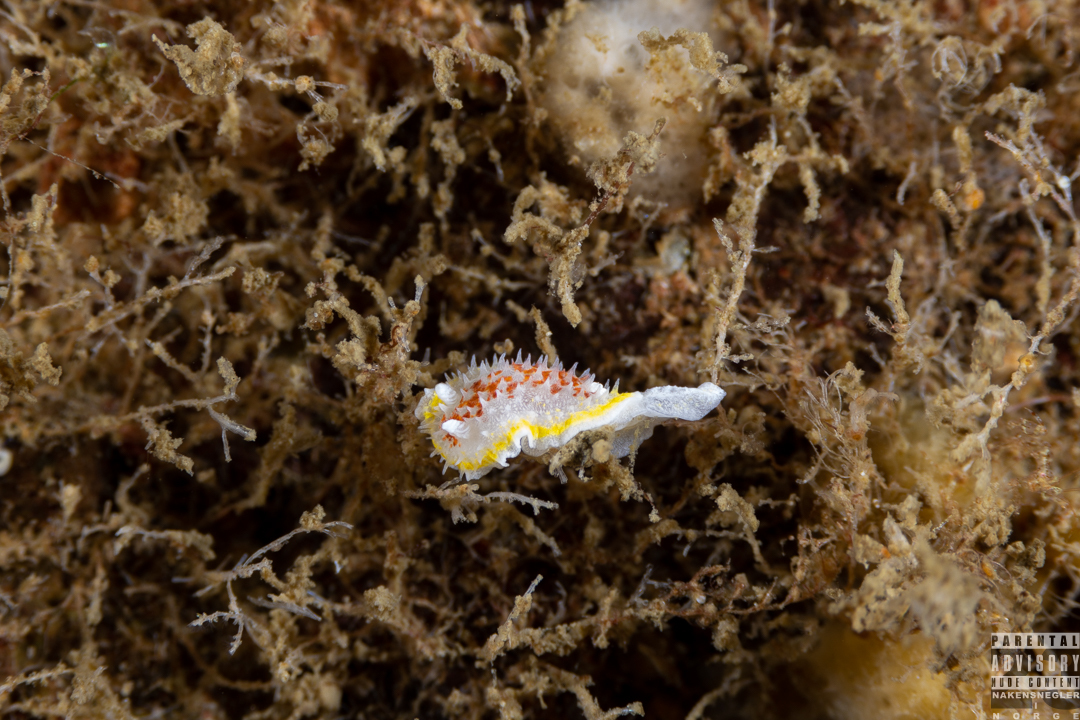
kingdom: Animalia
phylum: Mollusca
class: Gastropoda
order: Nudibranchia
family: Calycidorididae
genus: Diaphorodoris
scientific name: Diaphorodoris luteocincta
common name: Fried egg nudibranch
